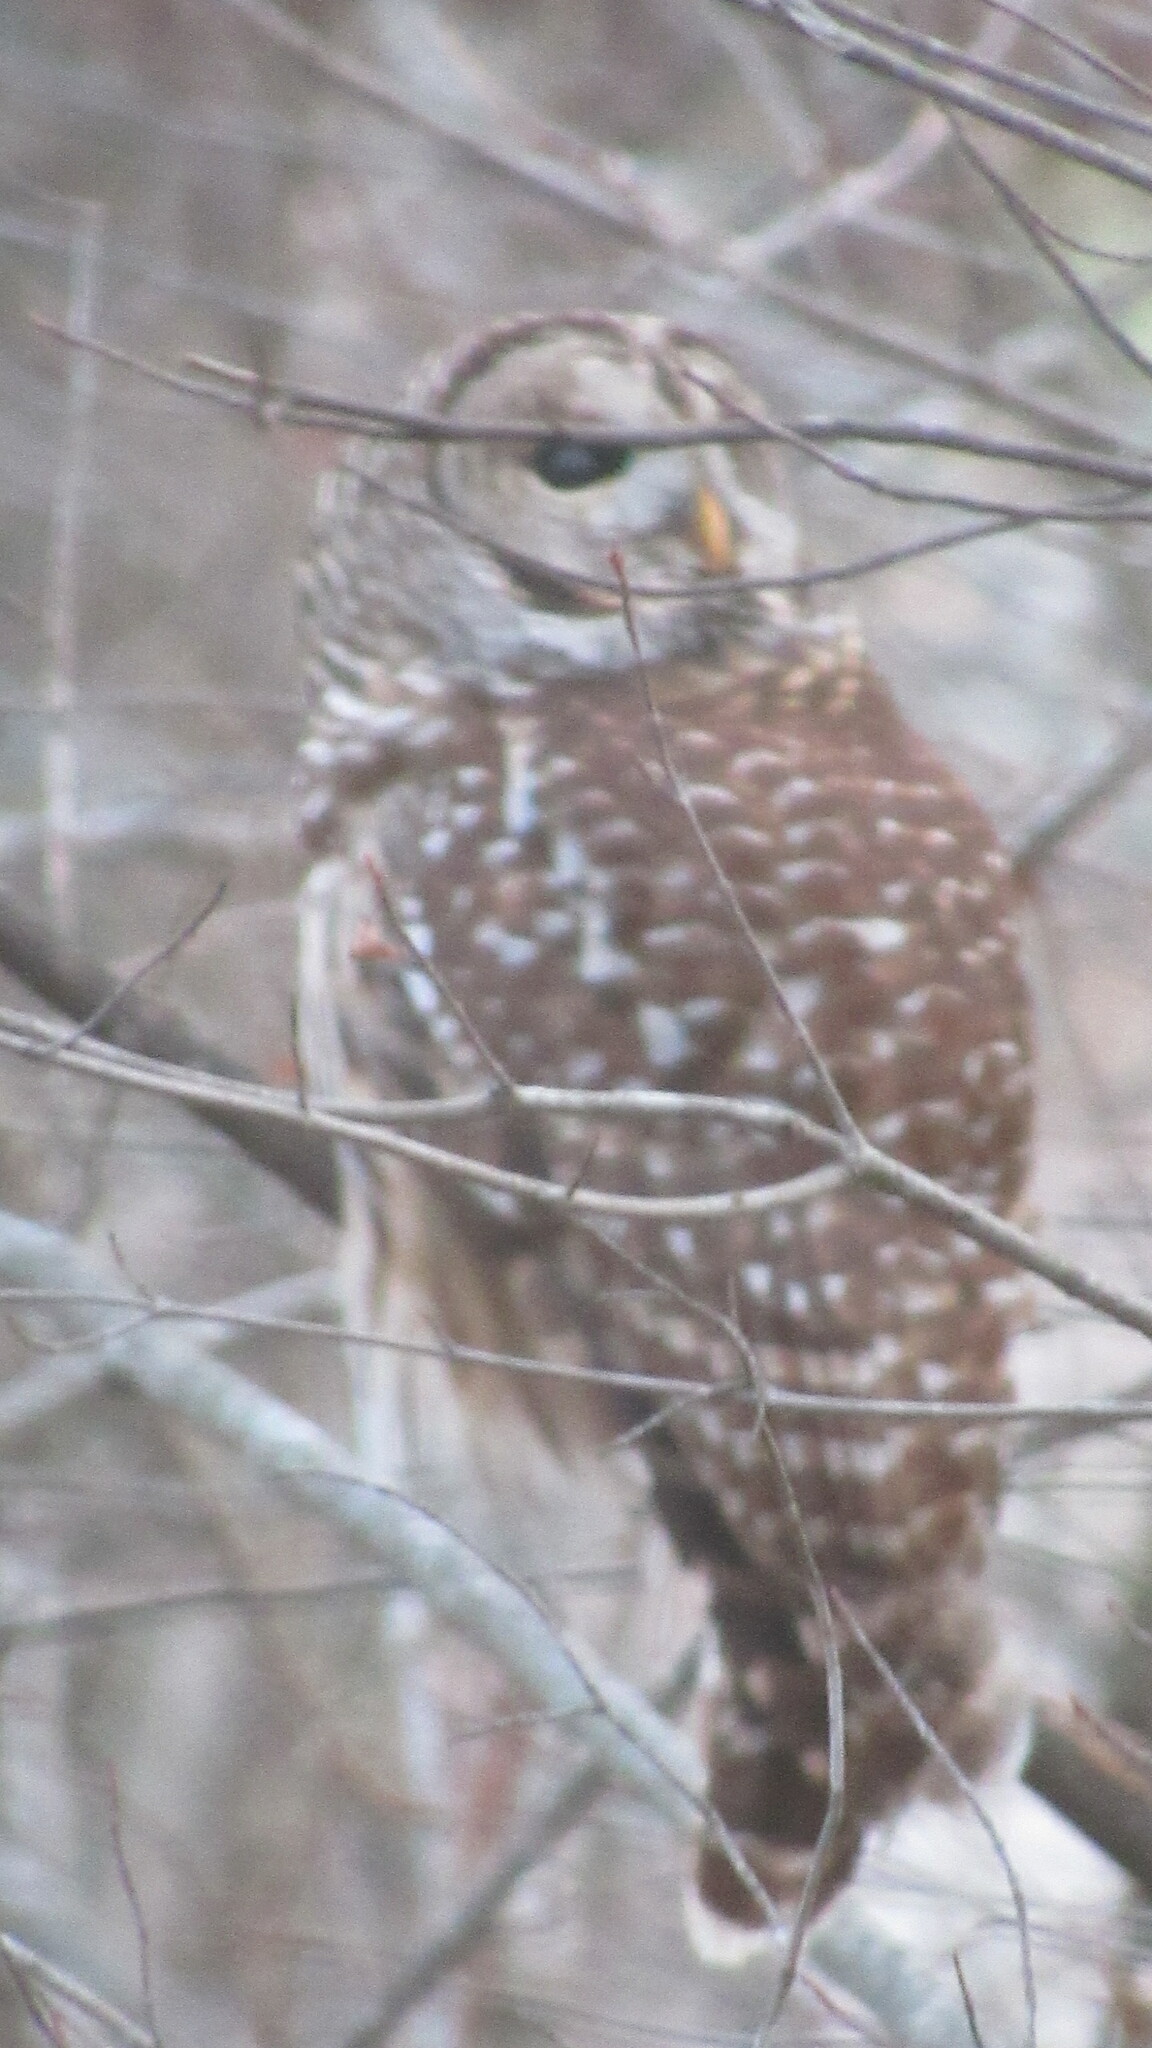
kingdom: Animalia
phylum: Chordata
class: Aves
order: Strigiformes
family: Strigidae
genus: Strix
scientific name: Strix varia
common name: Barred owl
